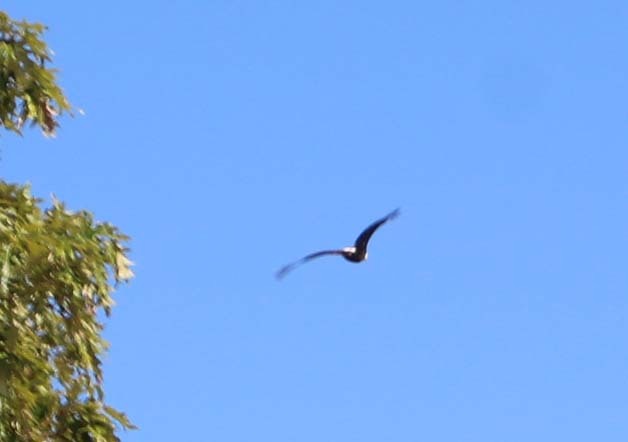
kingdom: Animalia
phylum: Chordata
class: Aves
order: Accipitriformes
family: Accipitridae
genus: Haliaeetus
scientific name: Haliaeetus leucocephalus
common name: Bald eagle
